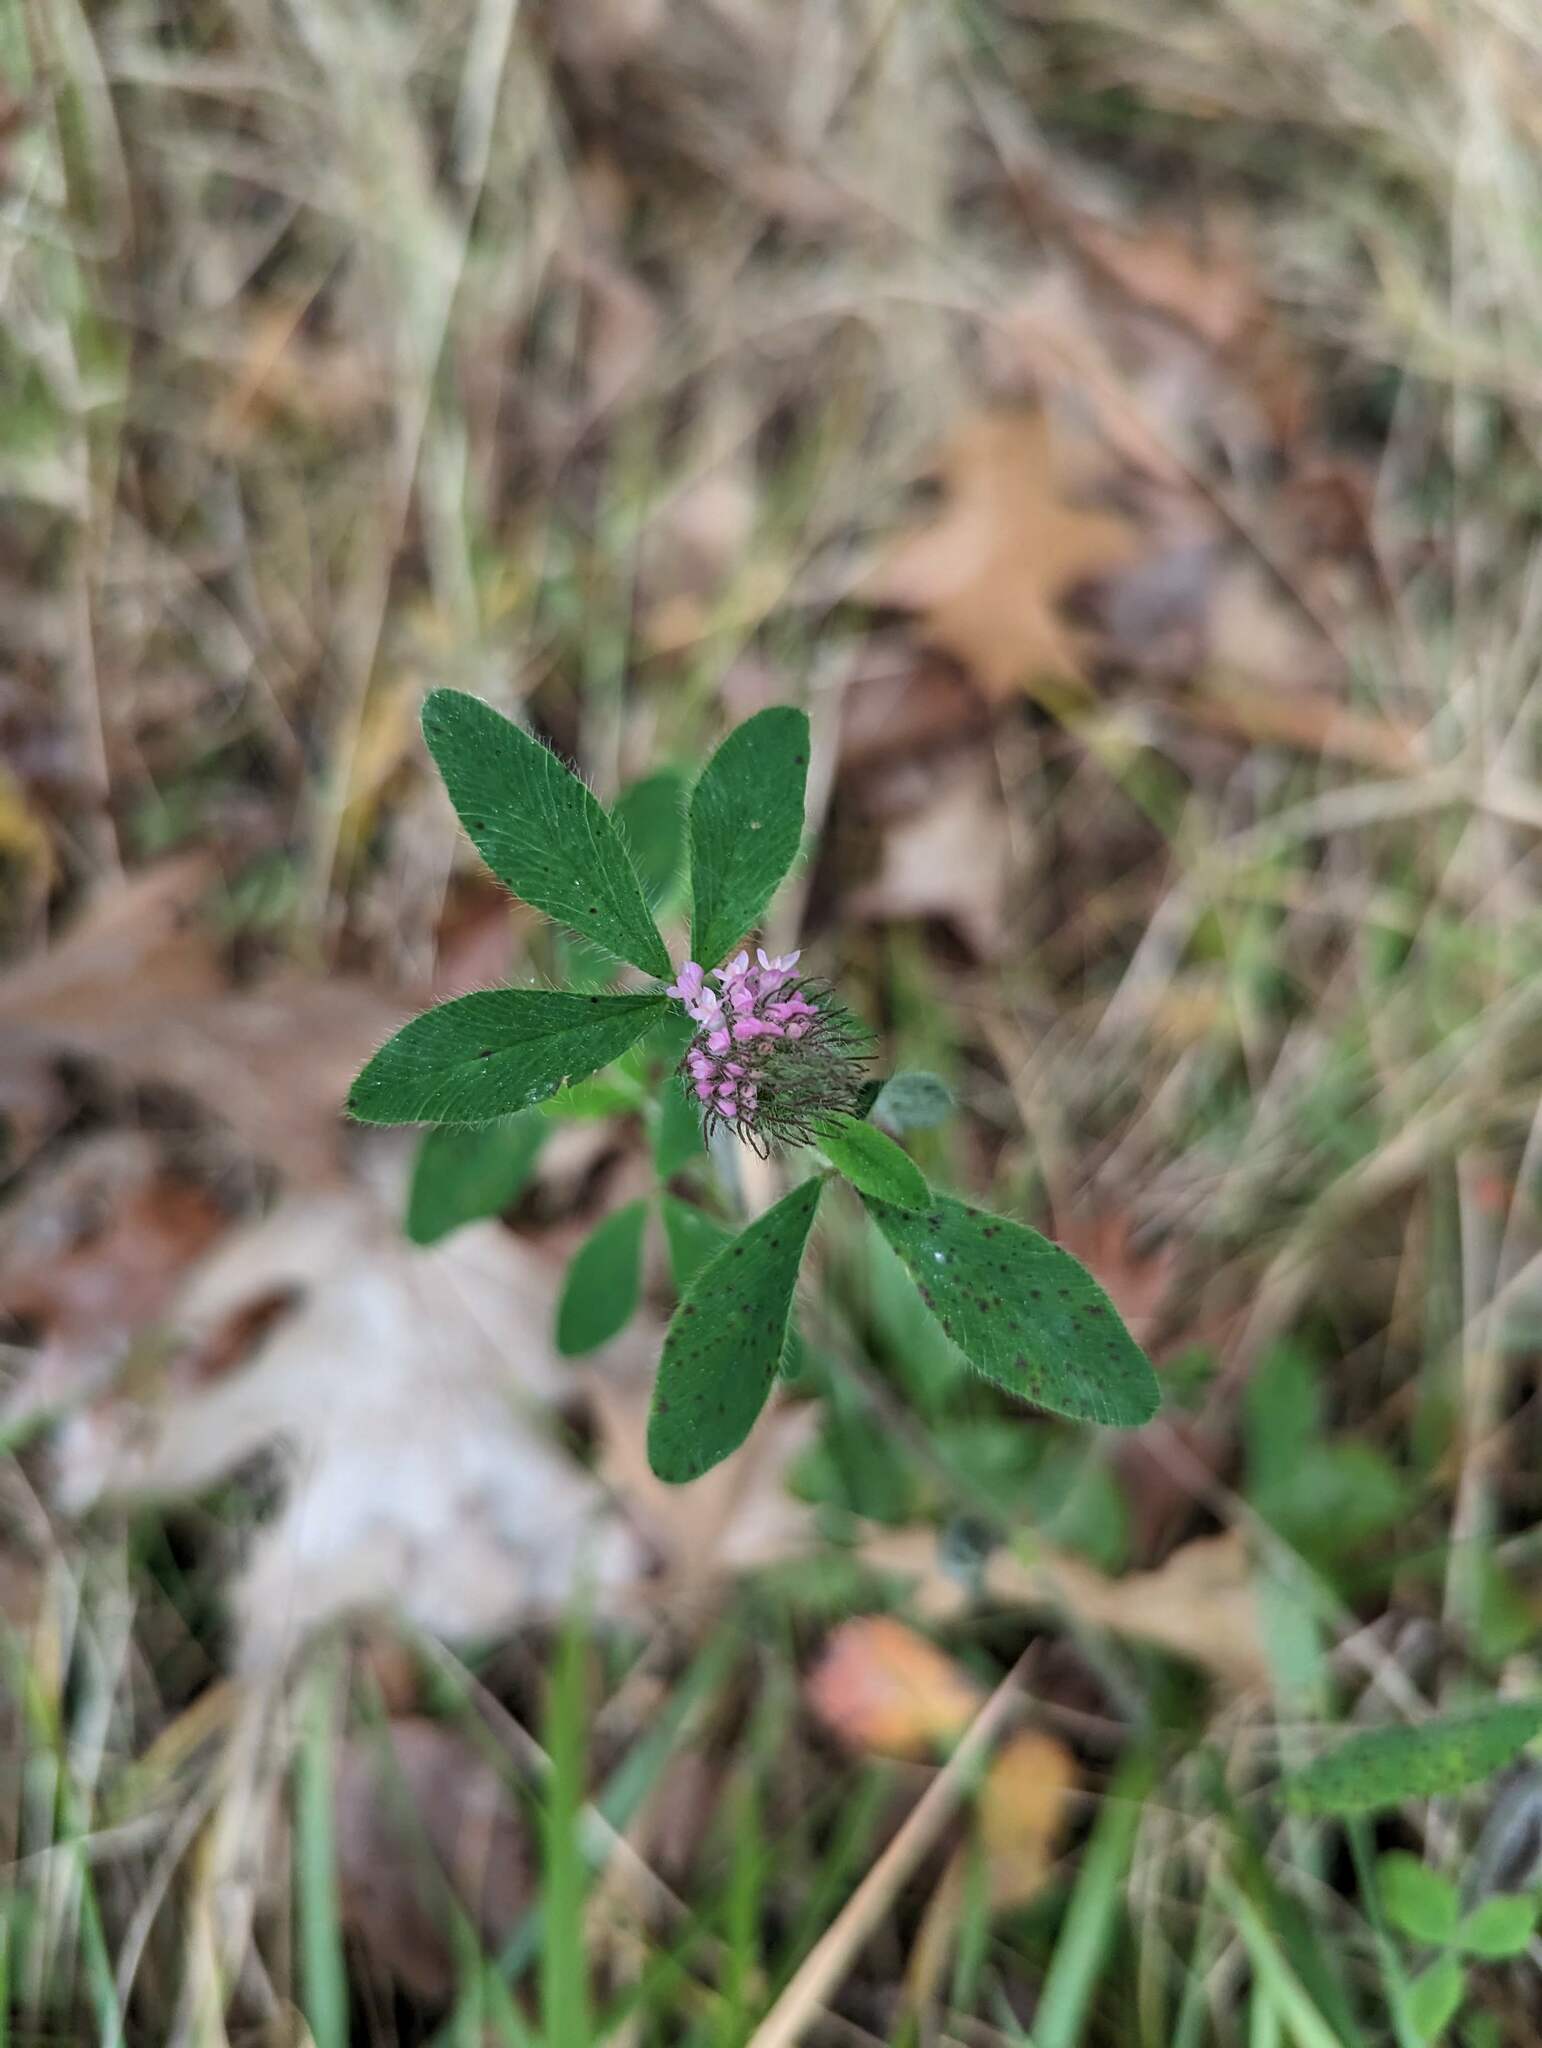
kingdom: Plantae
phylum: Tracheophyta
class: Magnoliopsida
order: Fabales
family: Fabaceae
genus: Trifolium
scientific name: Trifolium pratense
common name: Red clover
